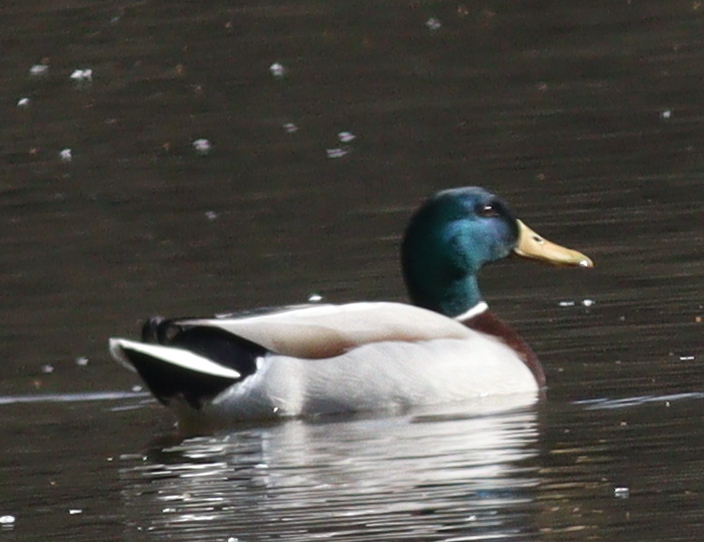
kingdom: Animalia
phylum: Chordata
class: Aves
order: Anseriformes
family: Anatidae
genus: Anas
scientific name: Anas platyrhynchos
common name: Mallard
